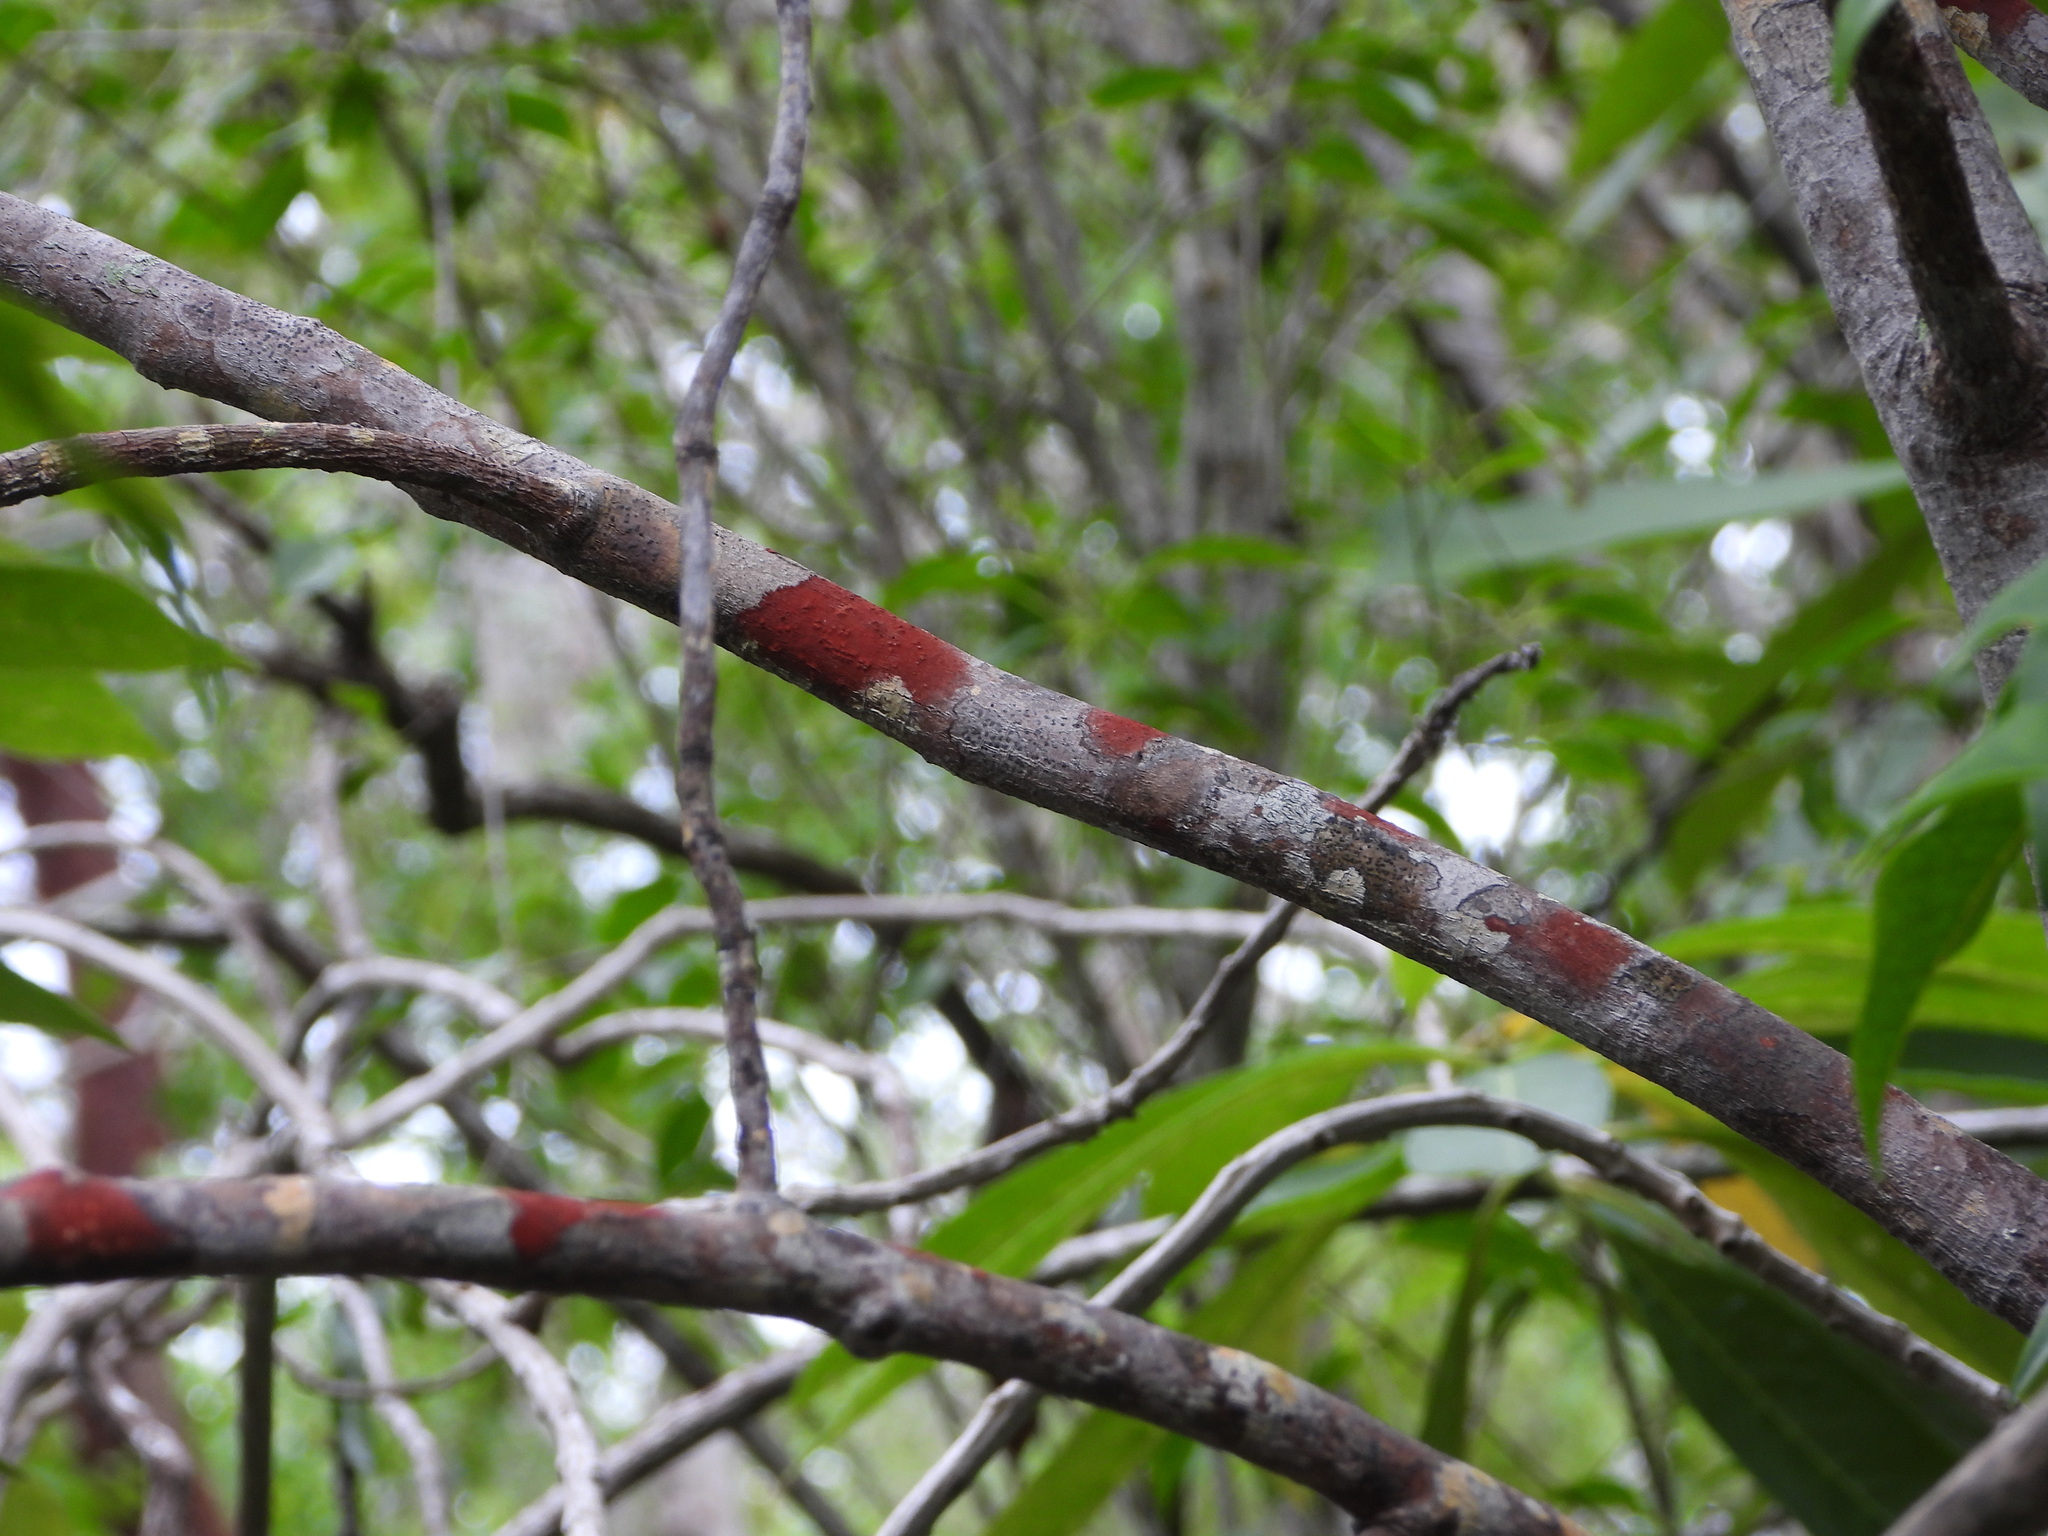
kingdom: Fungi
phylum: Ascomycota
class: Eurotiomycetes
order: Pyrenulales
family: Pyrenulaceae
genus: Pyrenula
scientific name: Pyrenula cruenta
